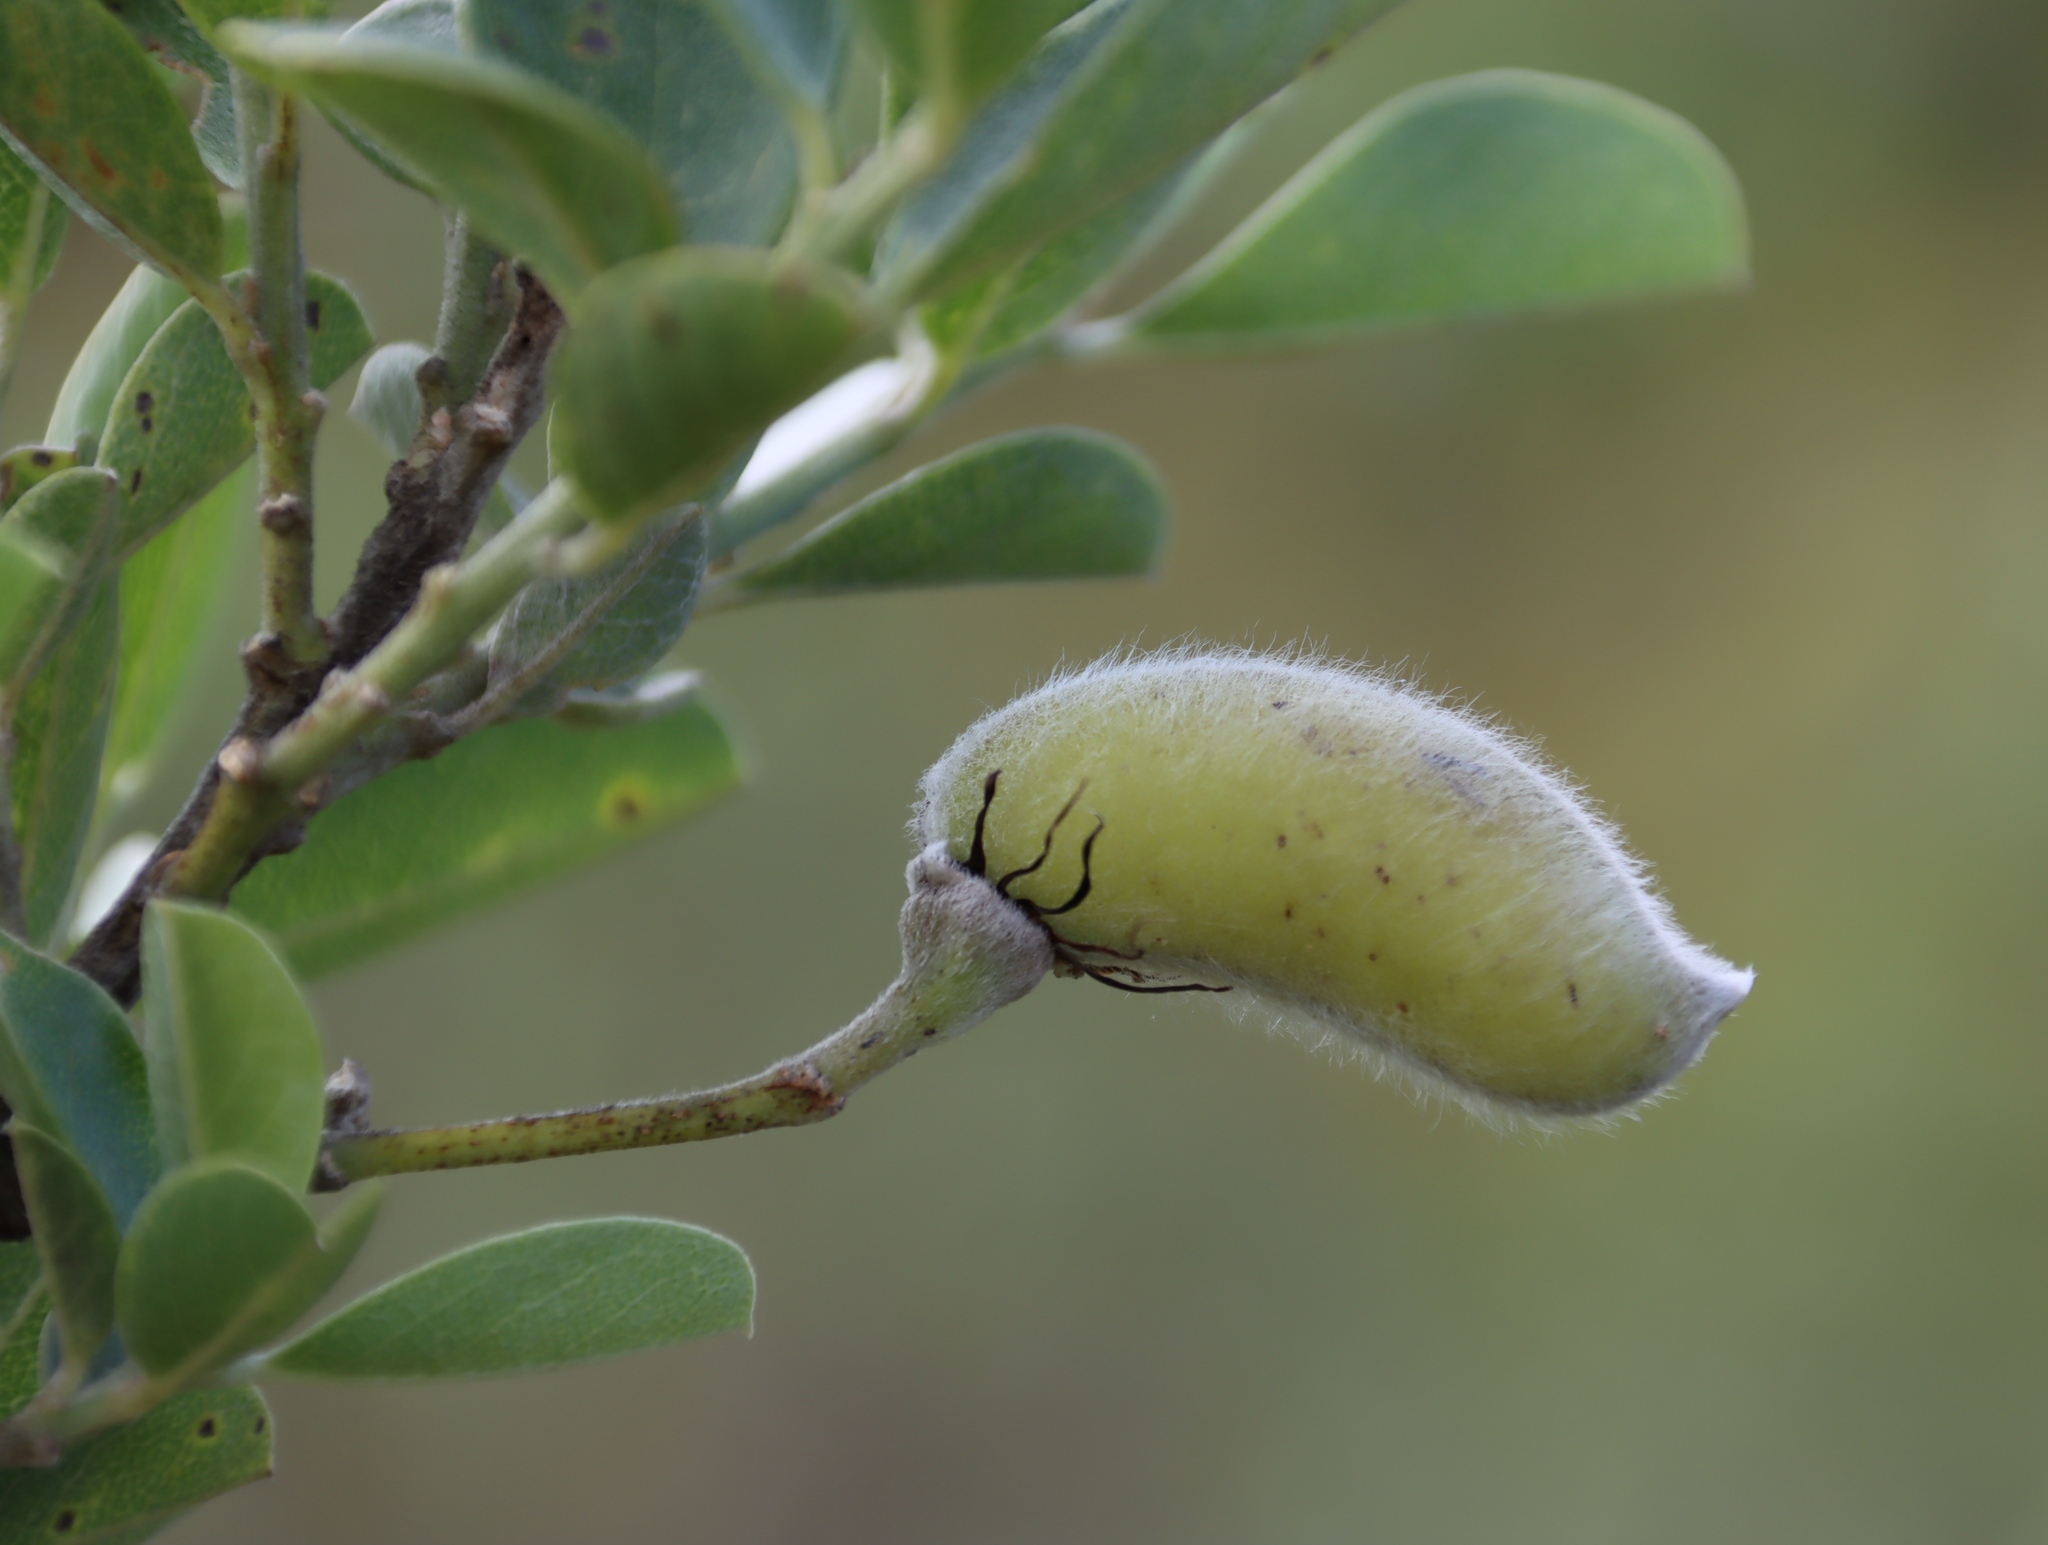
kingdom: Plantae
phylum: Tracheophyta
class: Magnoliopsida
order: Fabales
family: Fabaceae
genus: Podalyria
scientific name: Podalyria calyptrata
